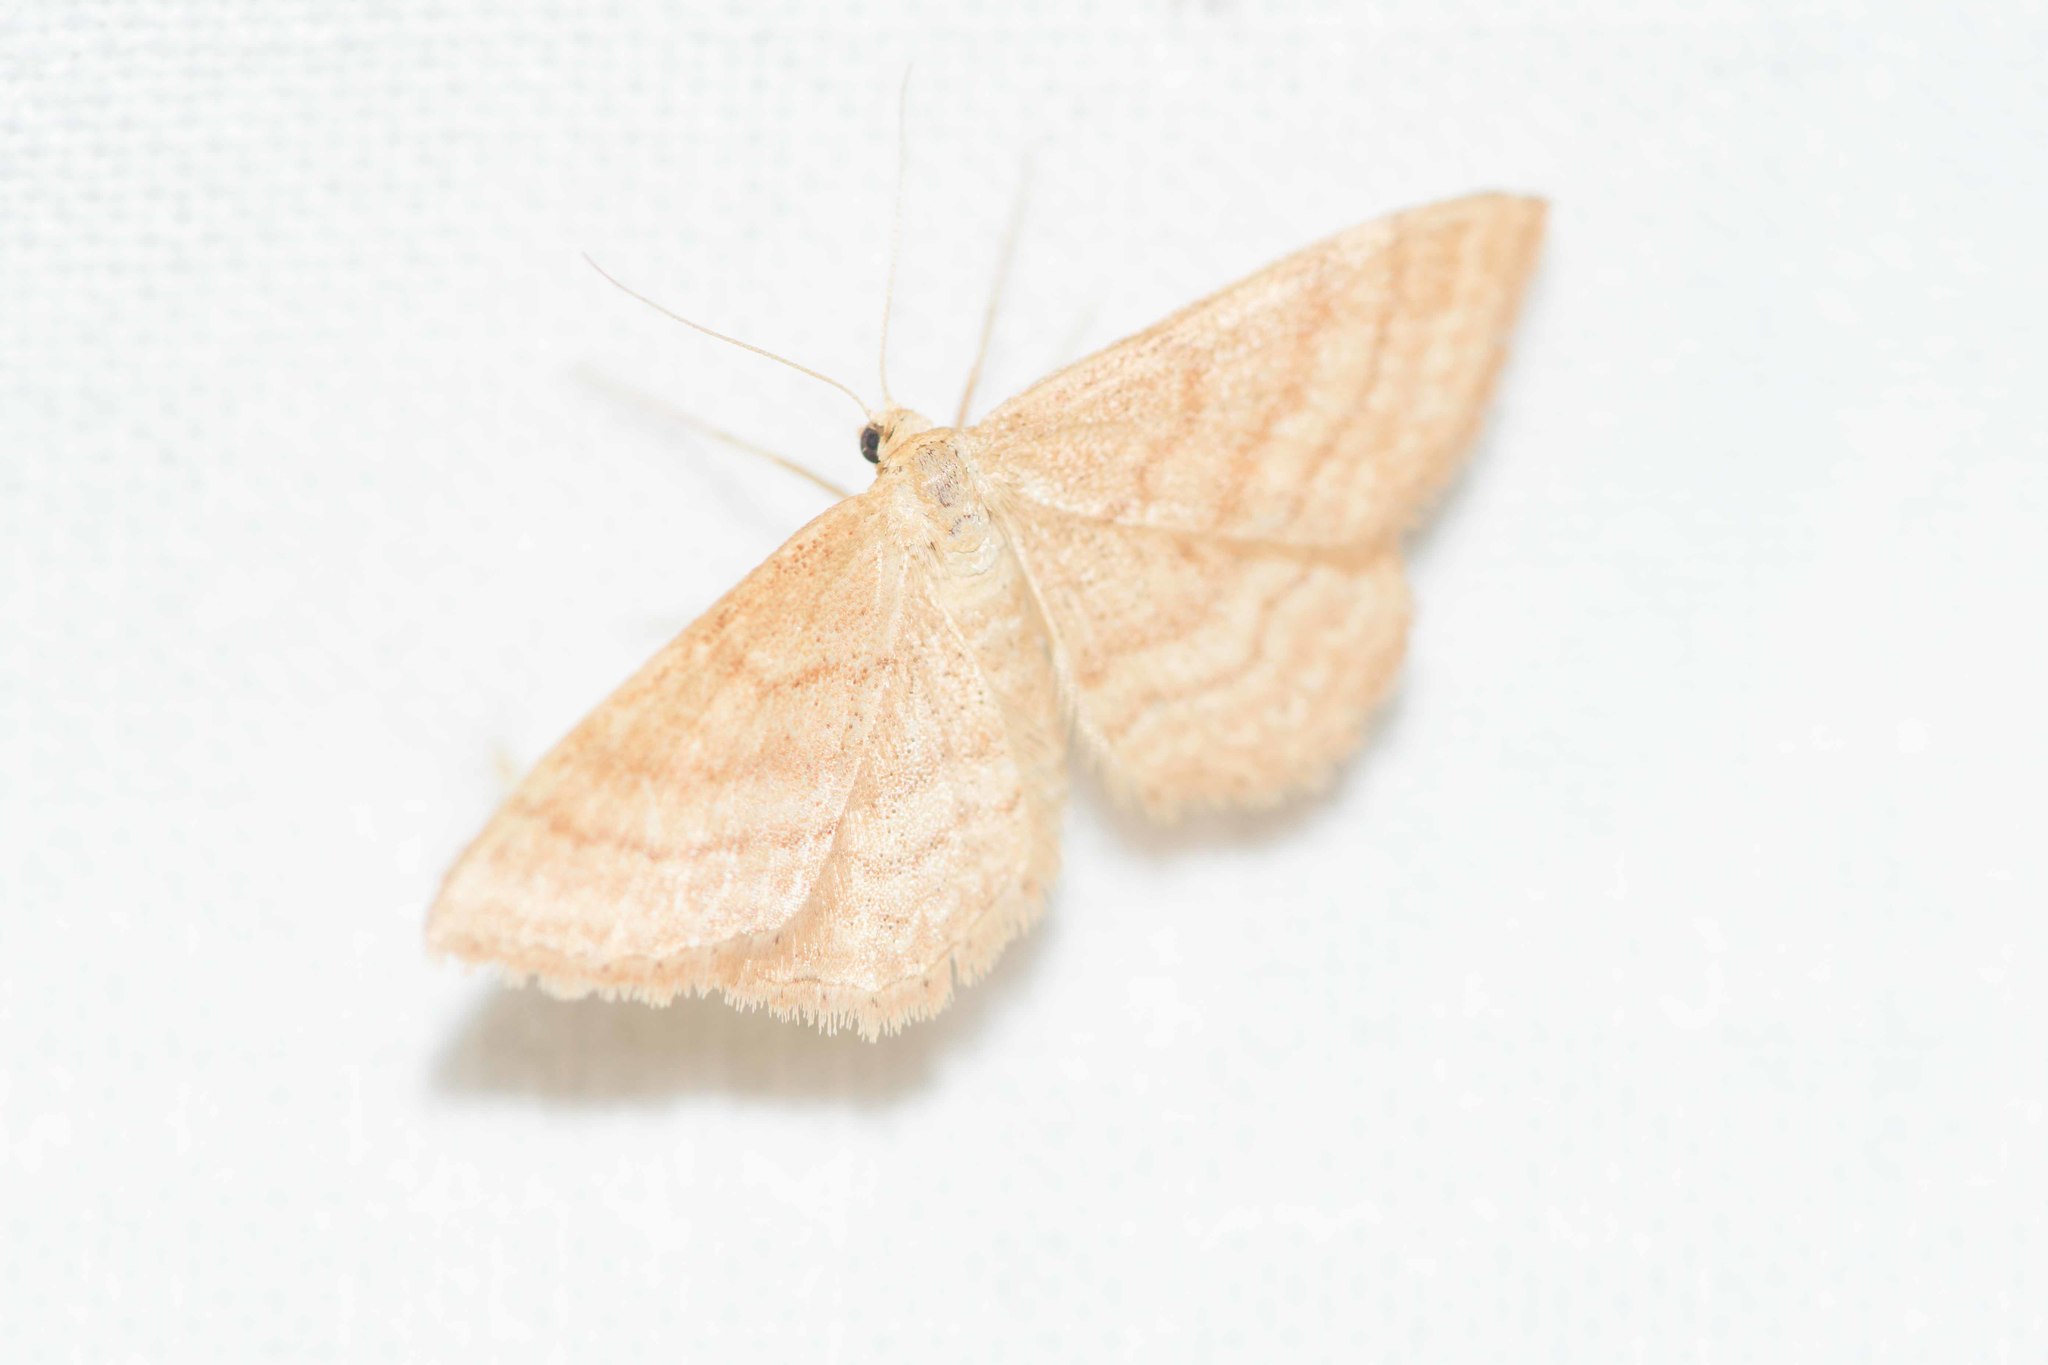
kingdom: Animalia
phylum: Arthropoda
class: Insecta
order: Lepidoptera
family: Geometridae
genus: Idaea
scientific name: Idaea ochrata
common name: Bright wave
